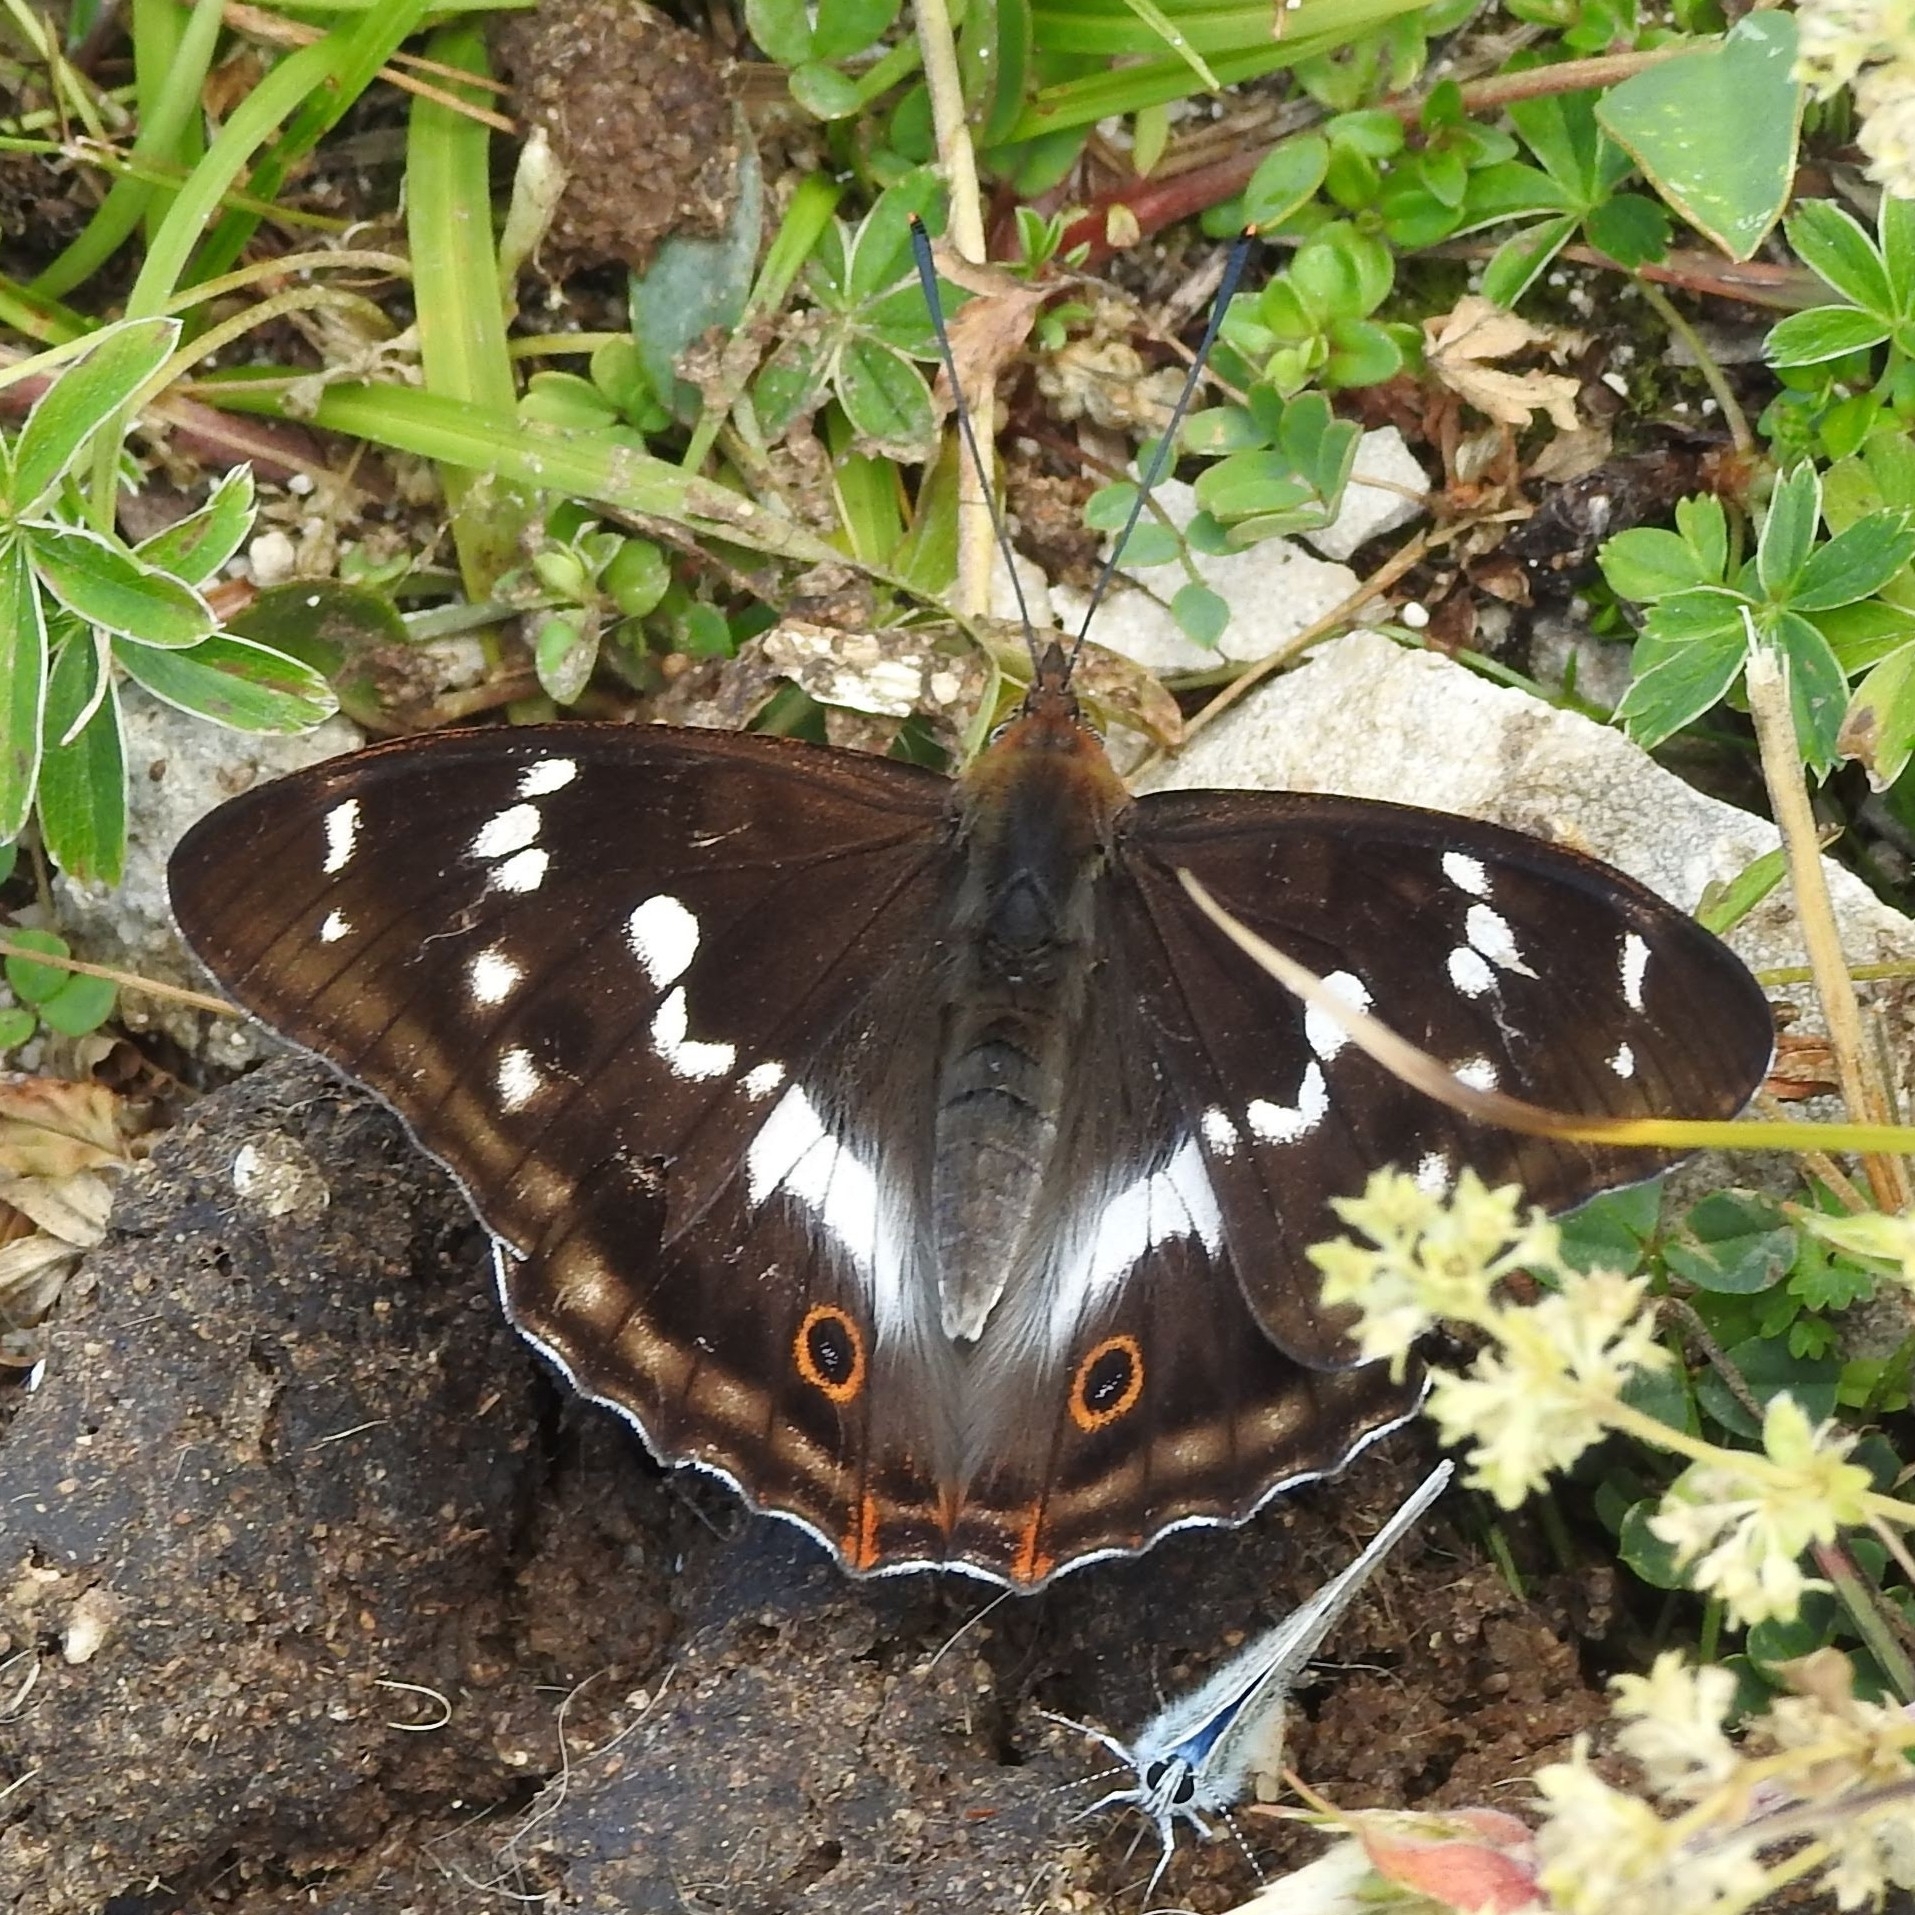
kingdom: Animalia
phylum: Arthropoda
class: Insecta
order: Lepidoptera
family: Nymphalidae
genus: Apatura
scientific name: Apatura iris
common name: Purple emperor
